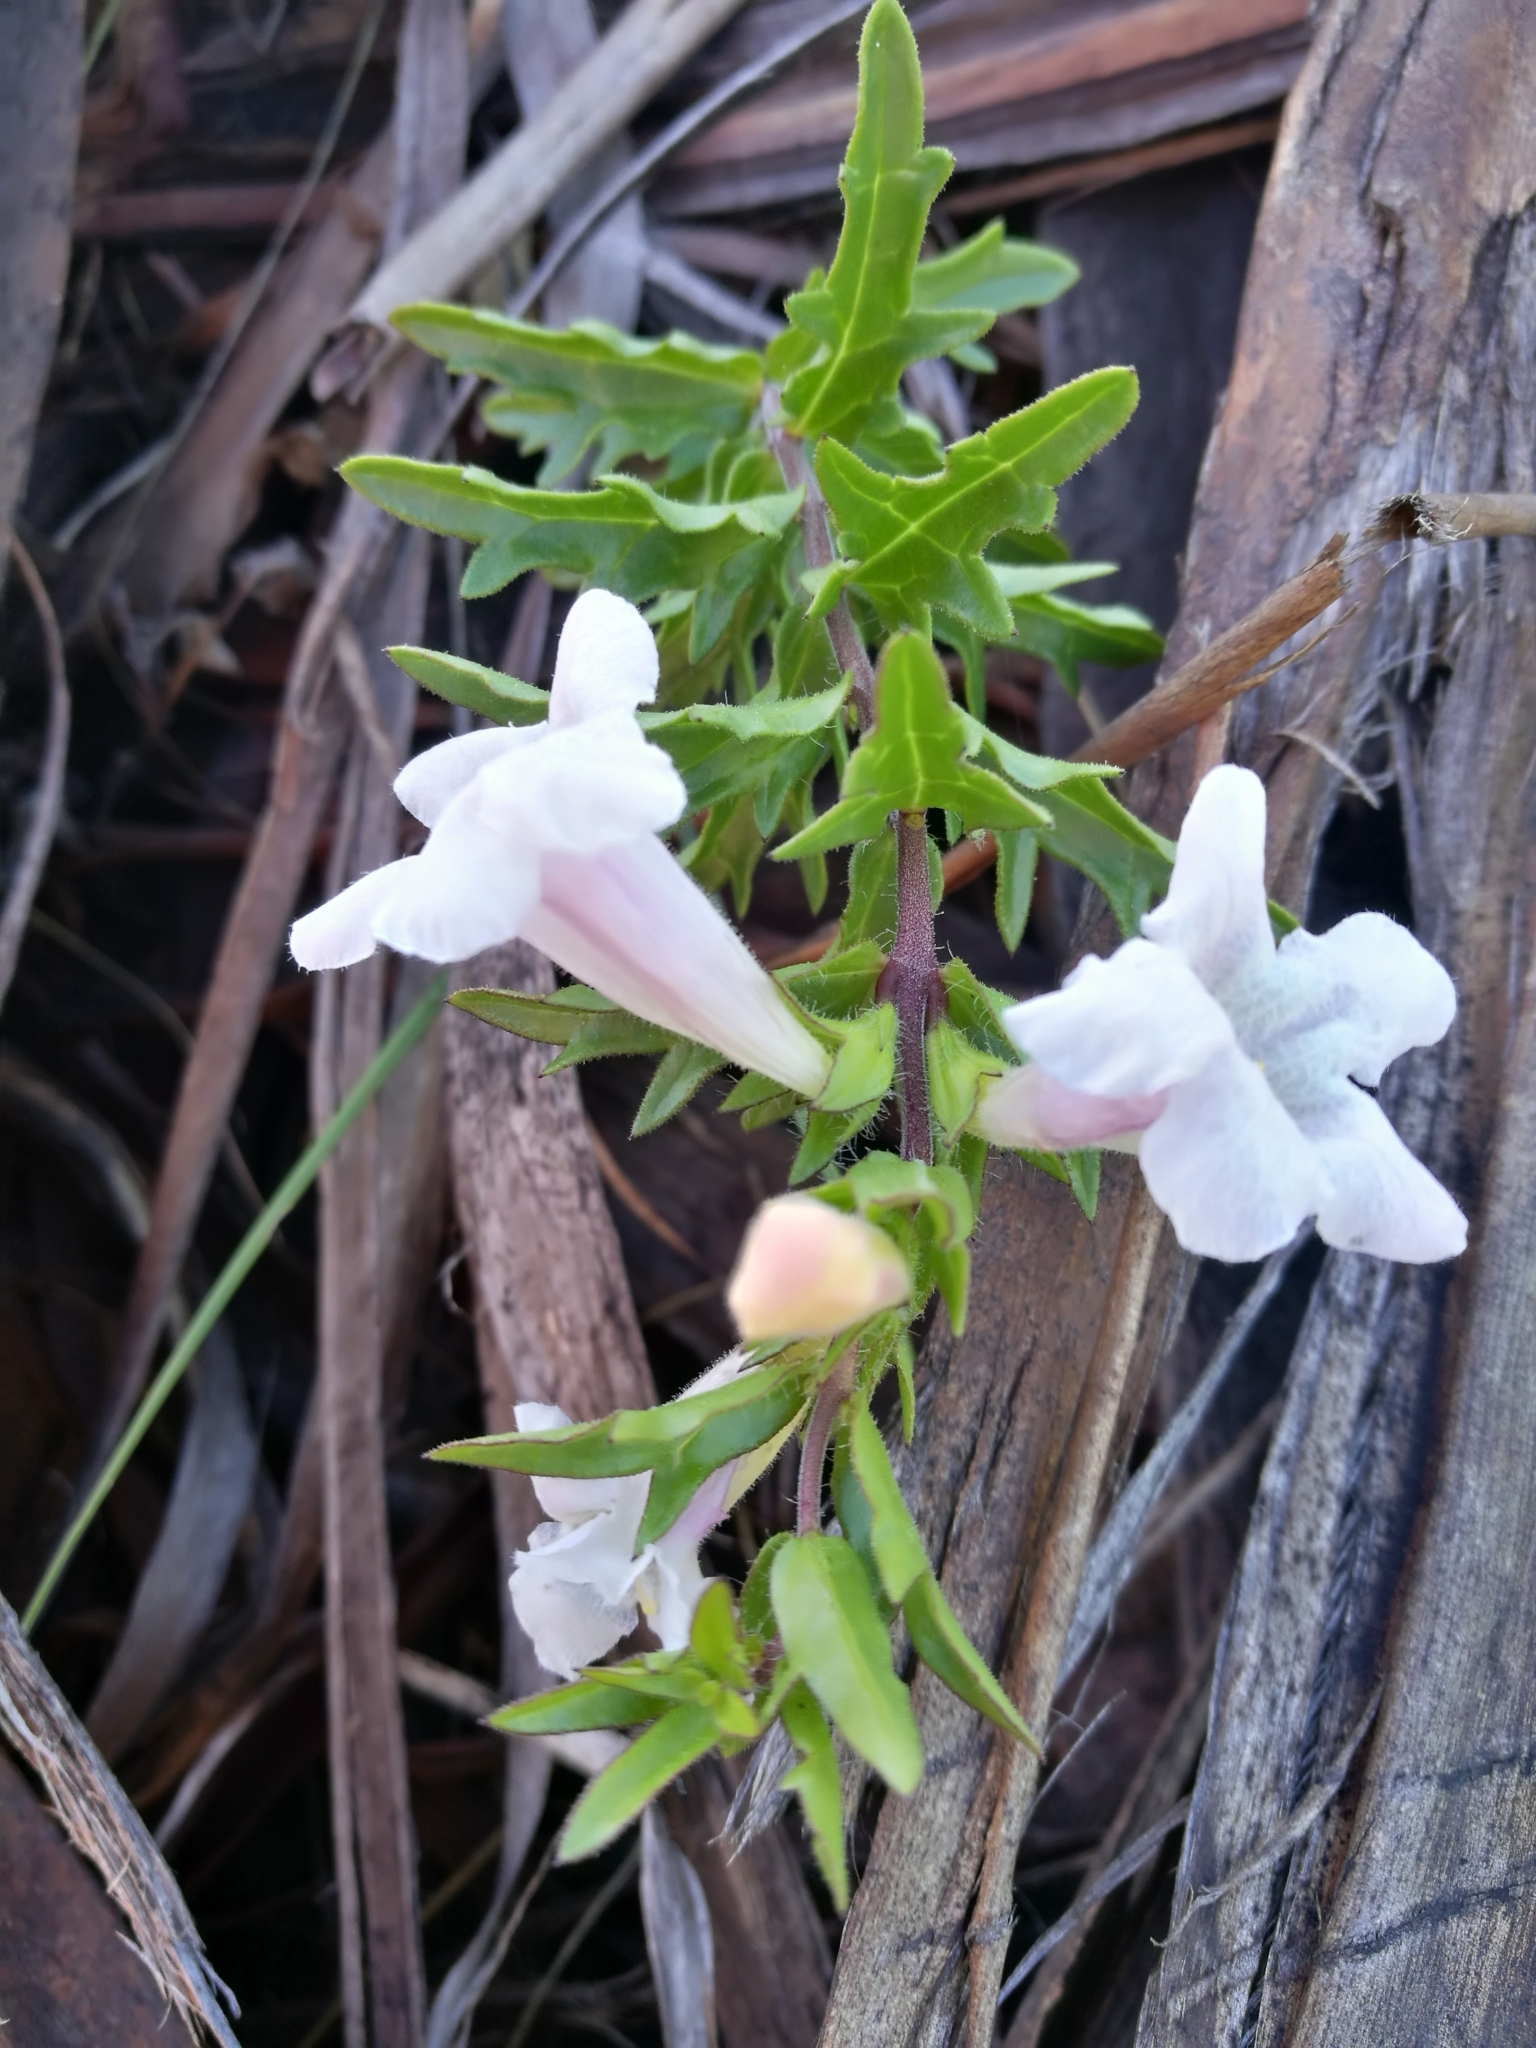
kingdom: Plantae
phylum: Tracheophyta
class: Magnoliopsida
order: Lamiales
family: Orobanchaceae
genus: Graderia
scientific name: Graderia scabra
